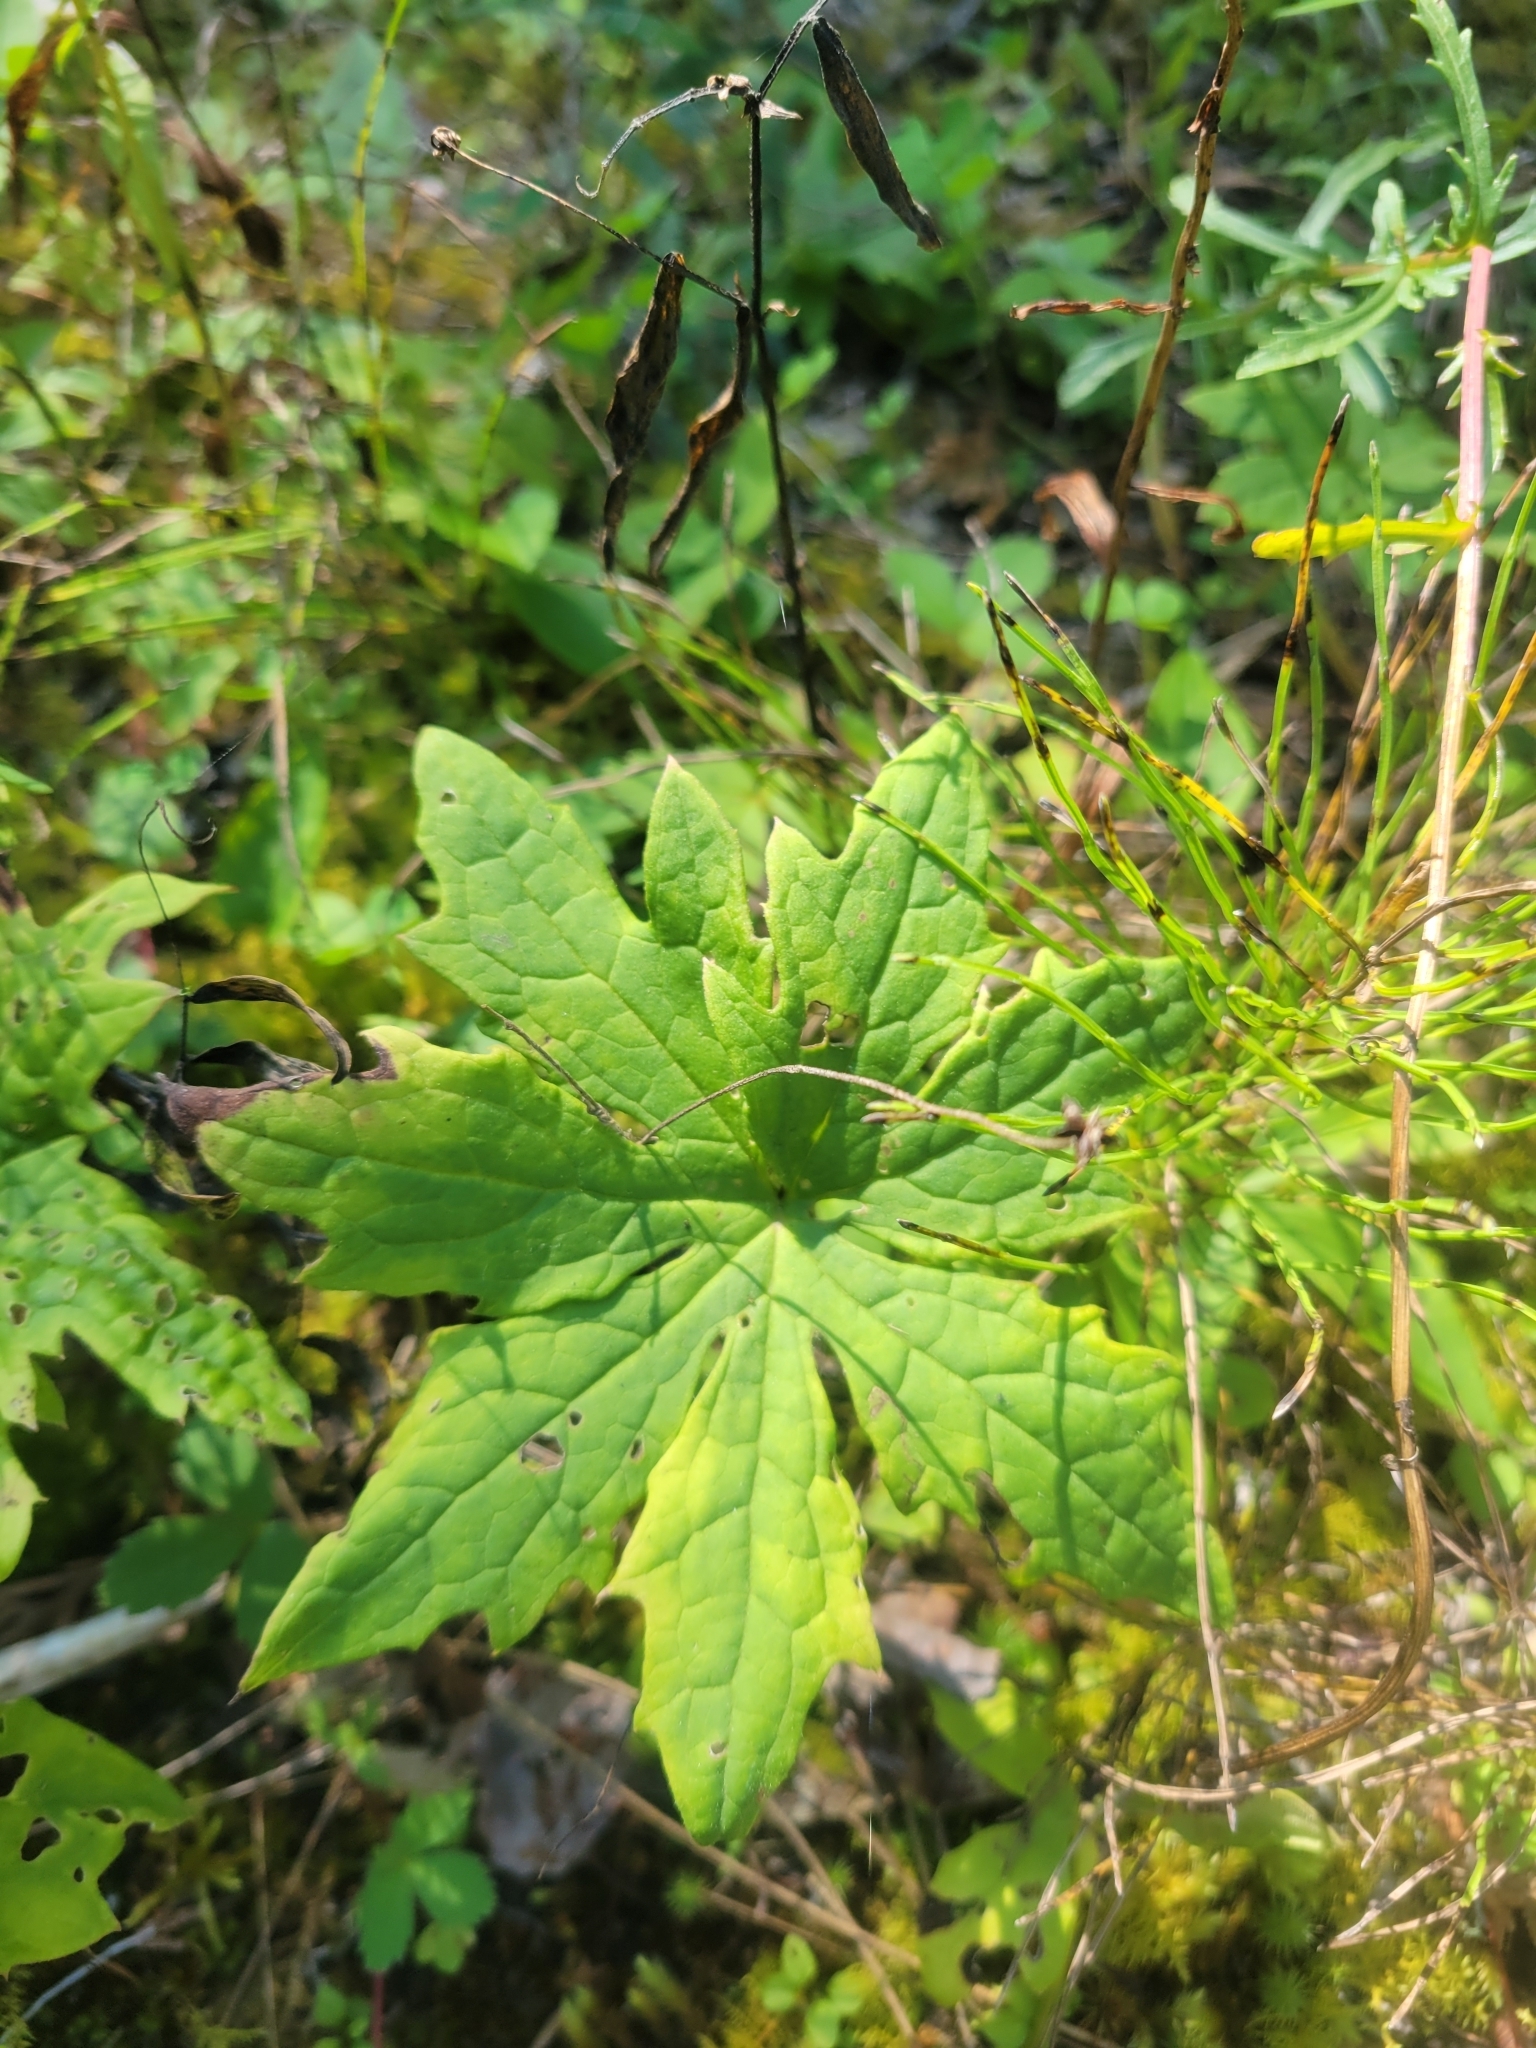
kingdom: Plantae
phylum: Tracheophyta
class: Magnoliopsida
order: Asterales
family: Asteraceae
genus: Petasites
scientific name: Petasites frigidus
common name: Arctic butterbur
